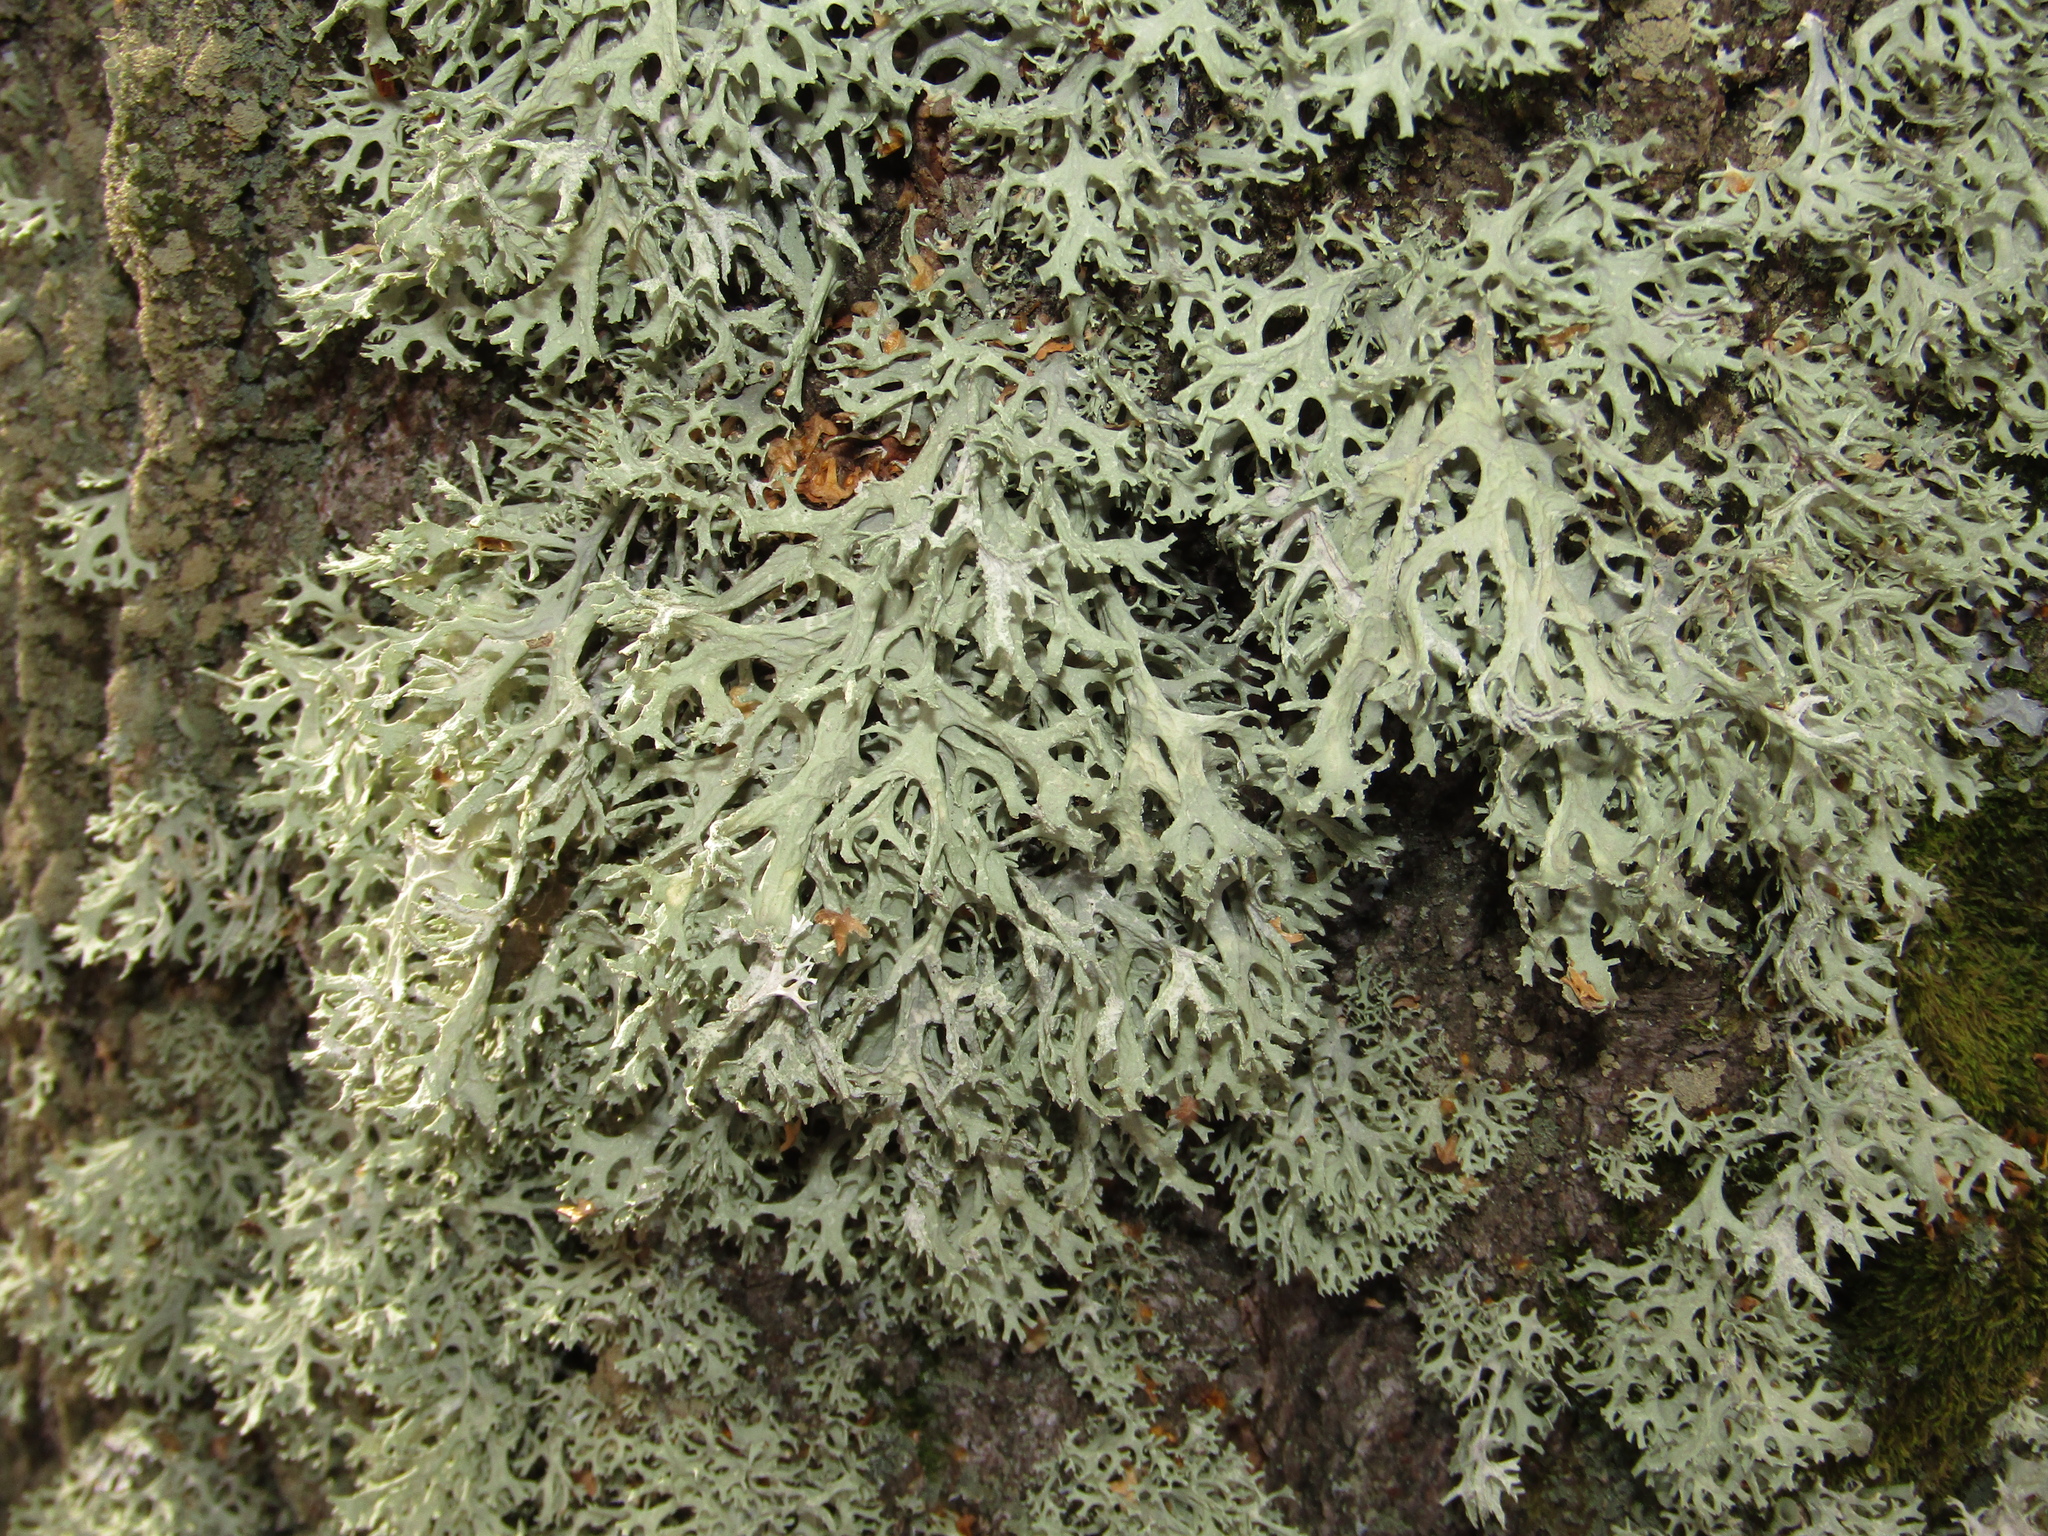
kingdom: Fungi
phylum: Ascomycota
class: Lecanoromycetes
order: Lecanorales
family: Parmeliaceae
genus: Evernia
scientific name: Evernia prunastri
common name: Oak moss
